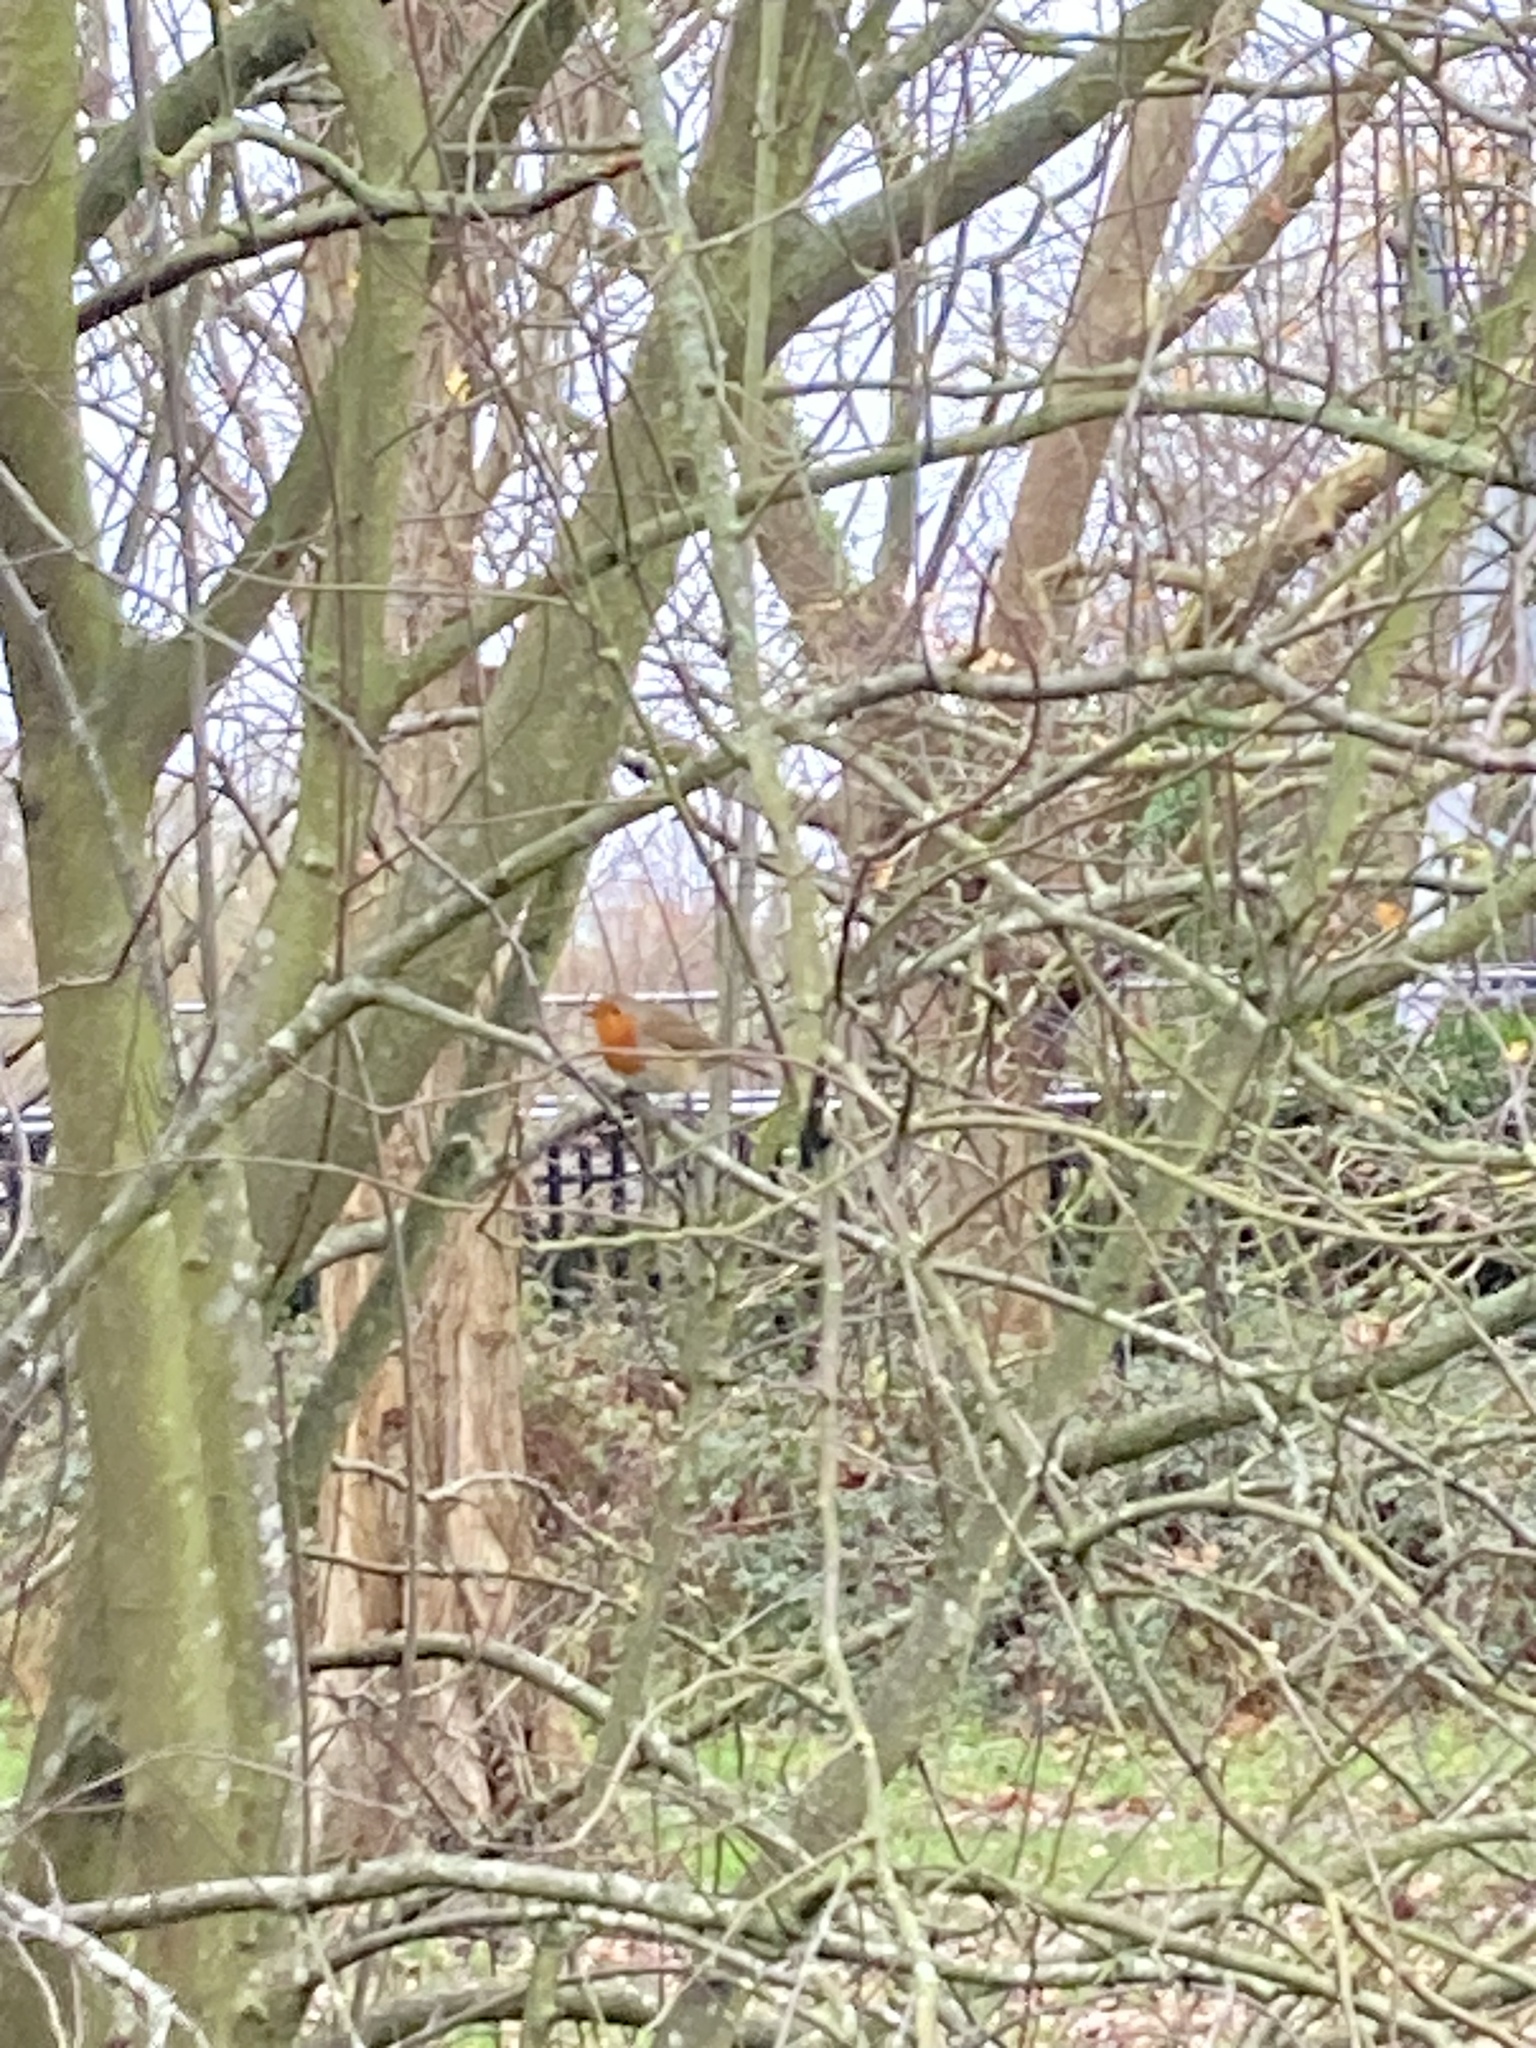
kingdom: Animalia
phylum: Chordata
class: Aves
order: Passeriformes
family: Muscicapidae
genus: Erithacus
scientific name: Erithacus rubecula
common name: European robin
